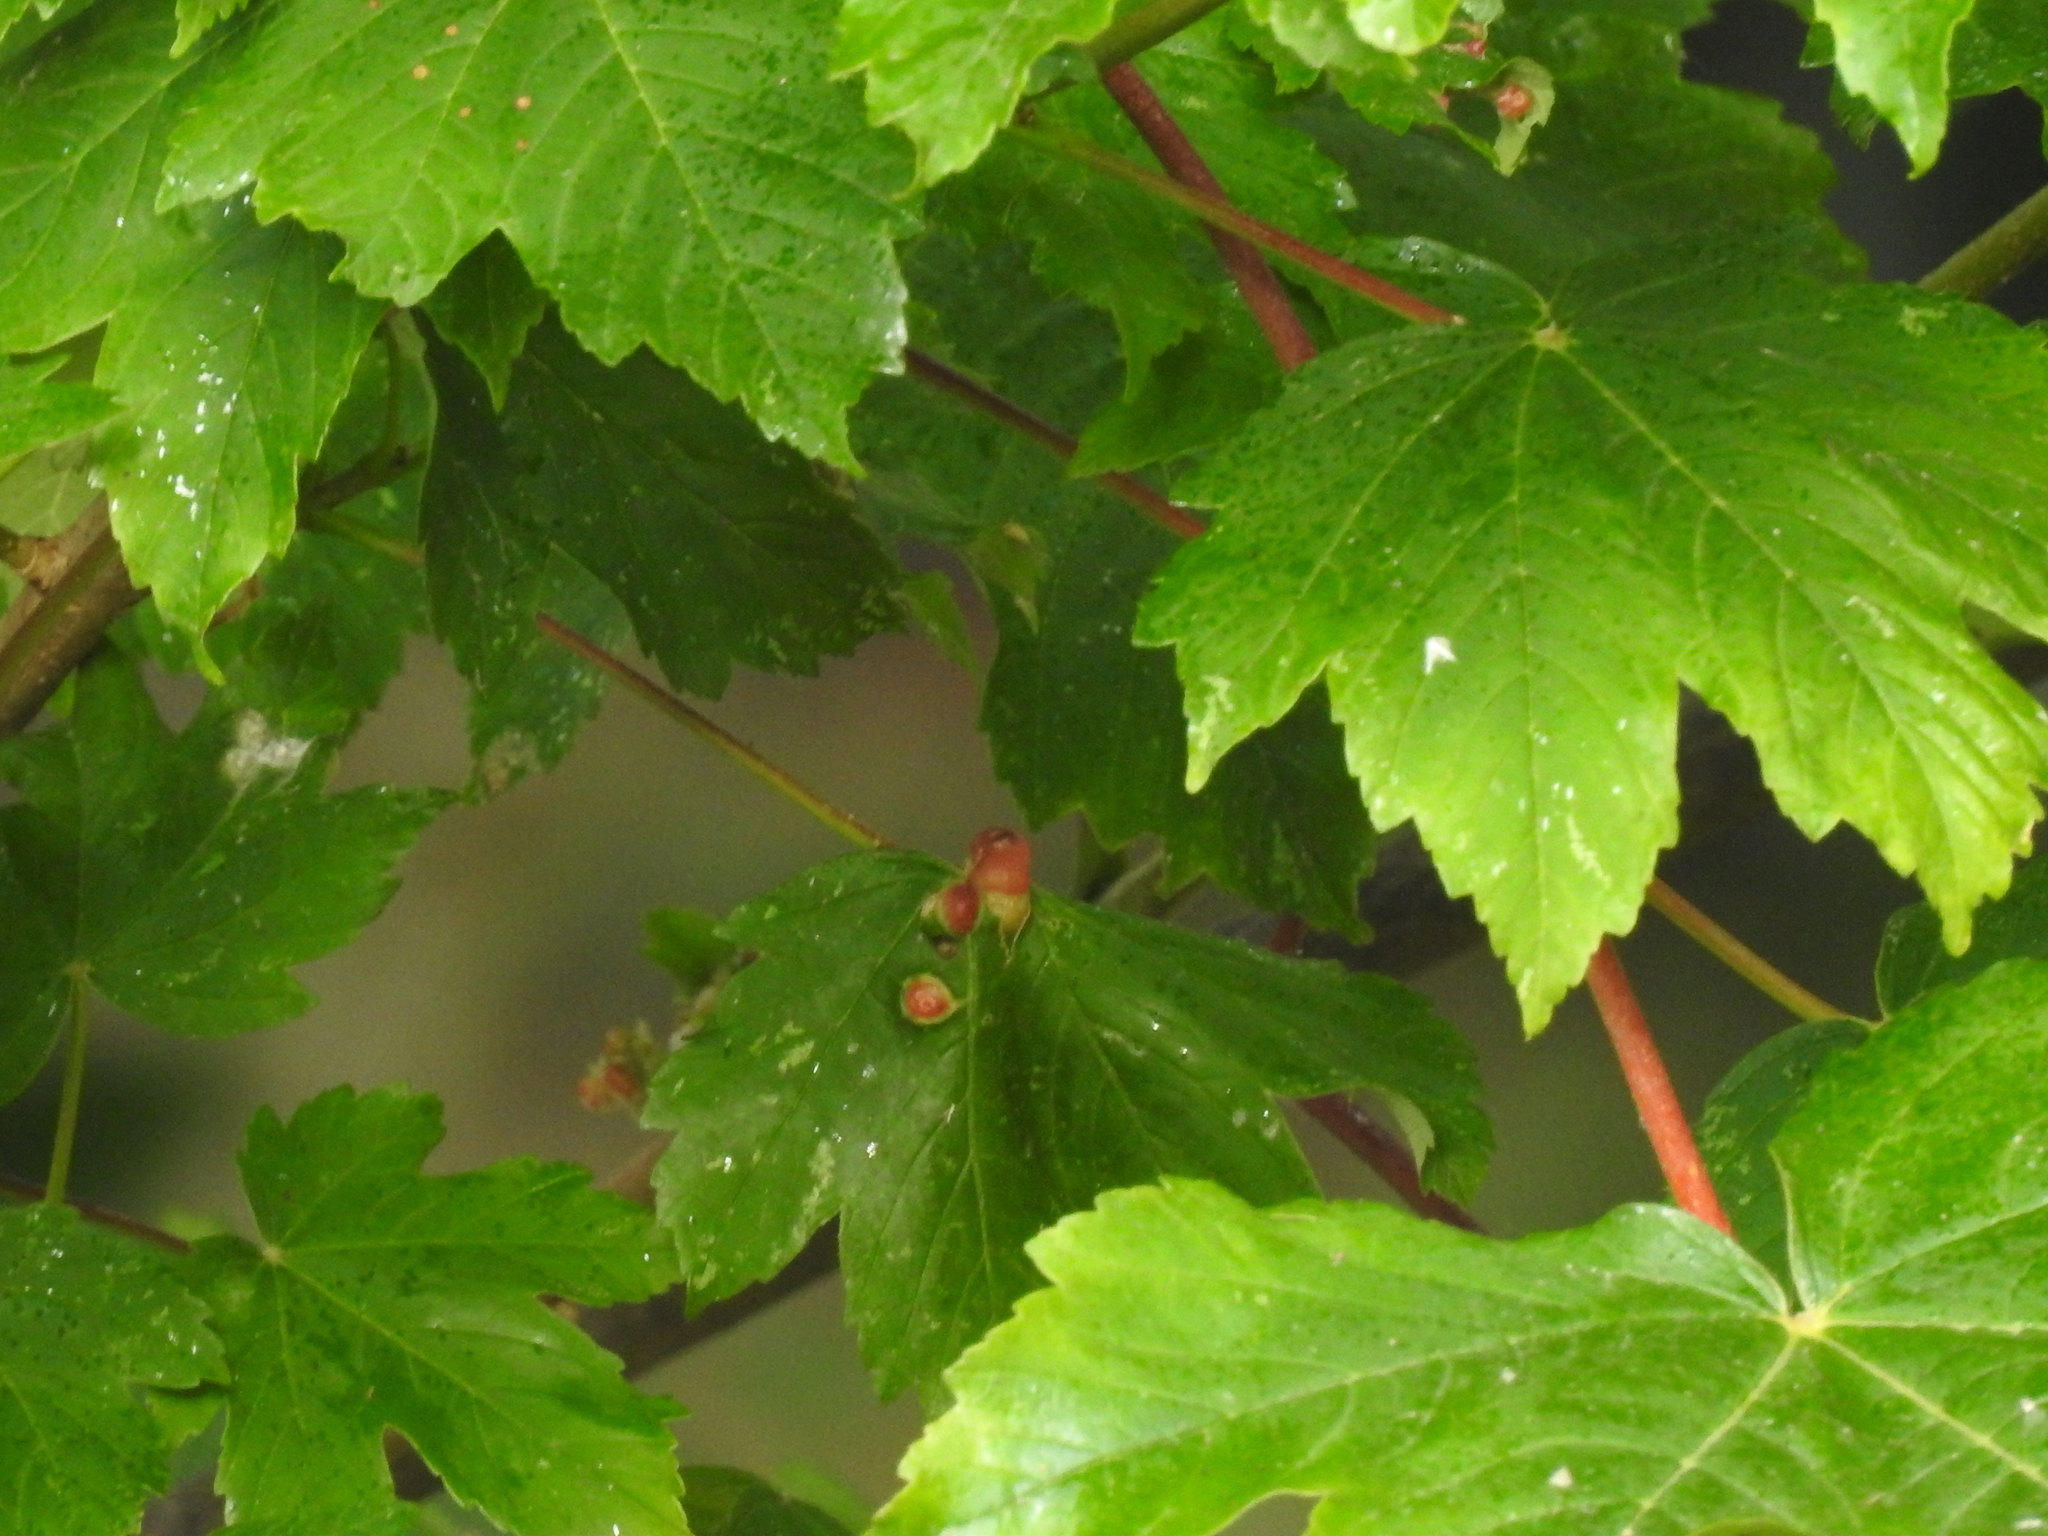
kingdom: Animalia
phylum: Arthropoda
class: Insecta
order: Hymenoptera
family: Cynipidae
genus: Pediaspis
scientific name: Pediaspis aceris
